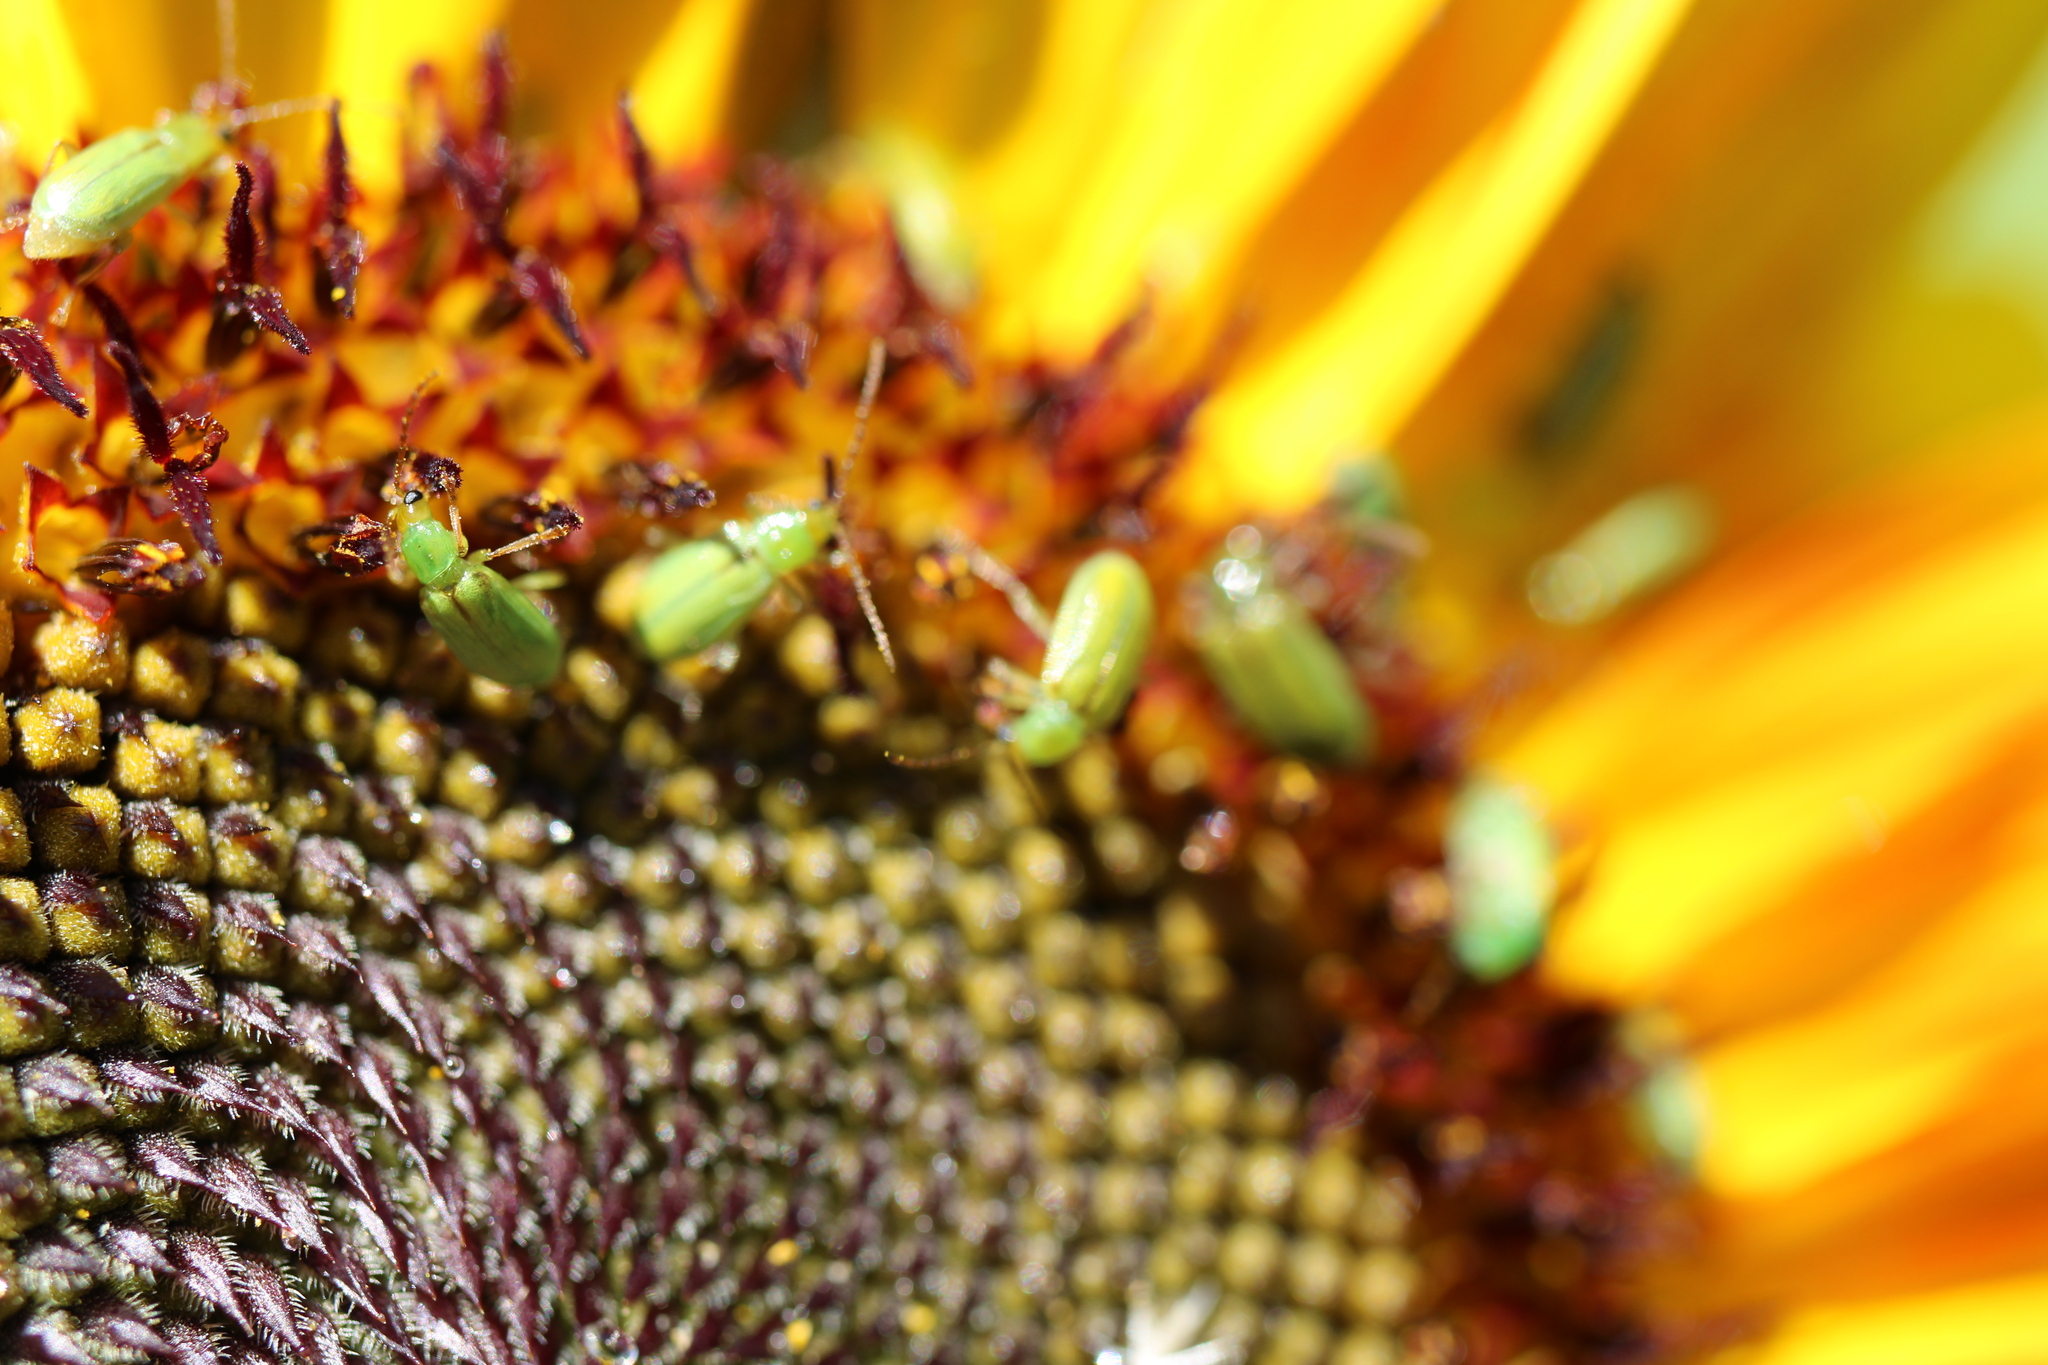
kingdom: Animalia
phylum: Arthropoda
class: Insecta
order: Coleoptera
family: Chrysomelidae
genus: Diabrotica
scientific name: Diabrotica barberi
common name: Northern corn rootworm
